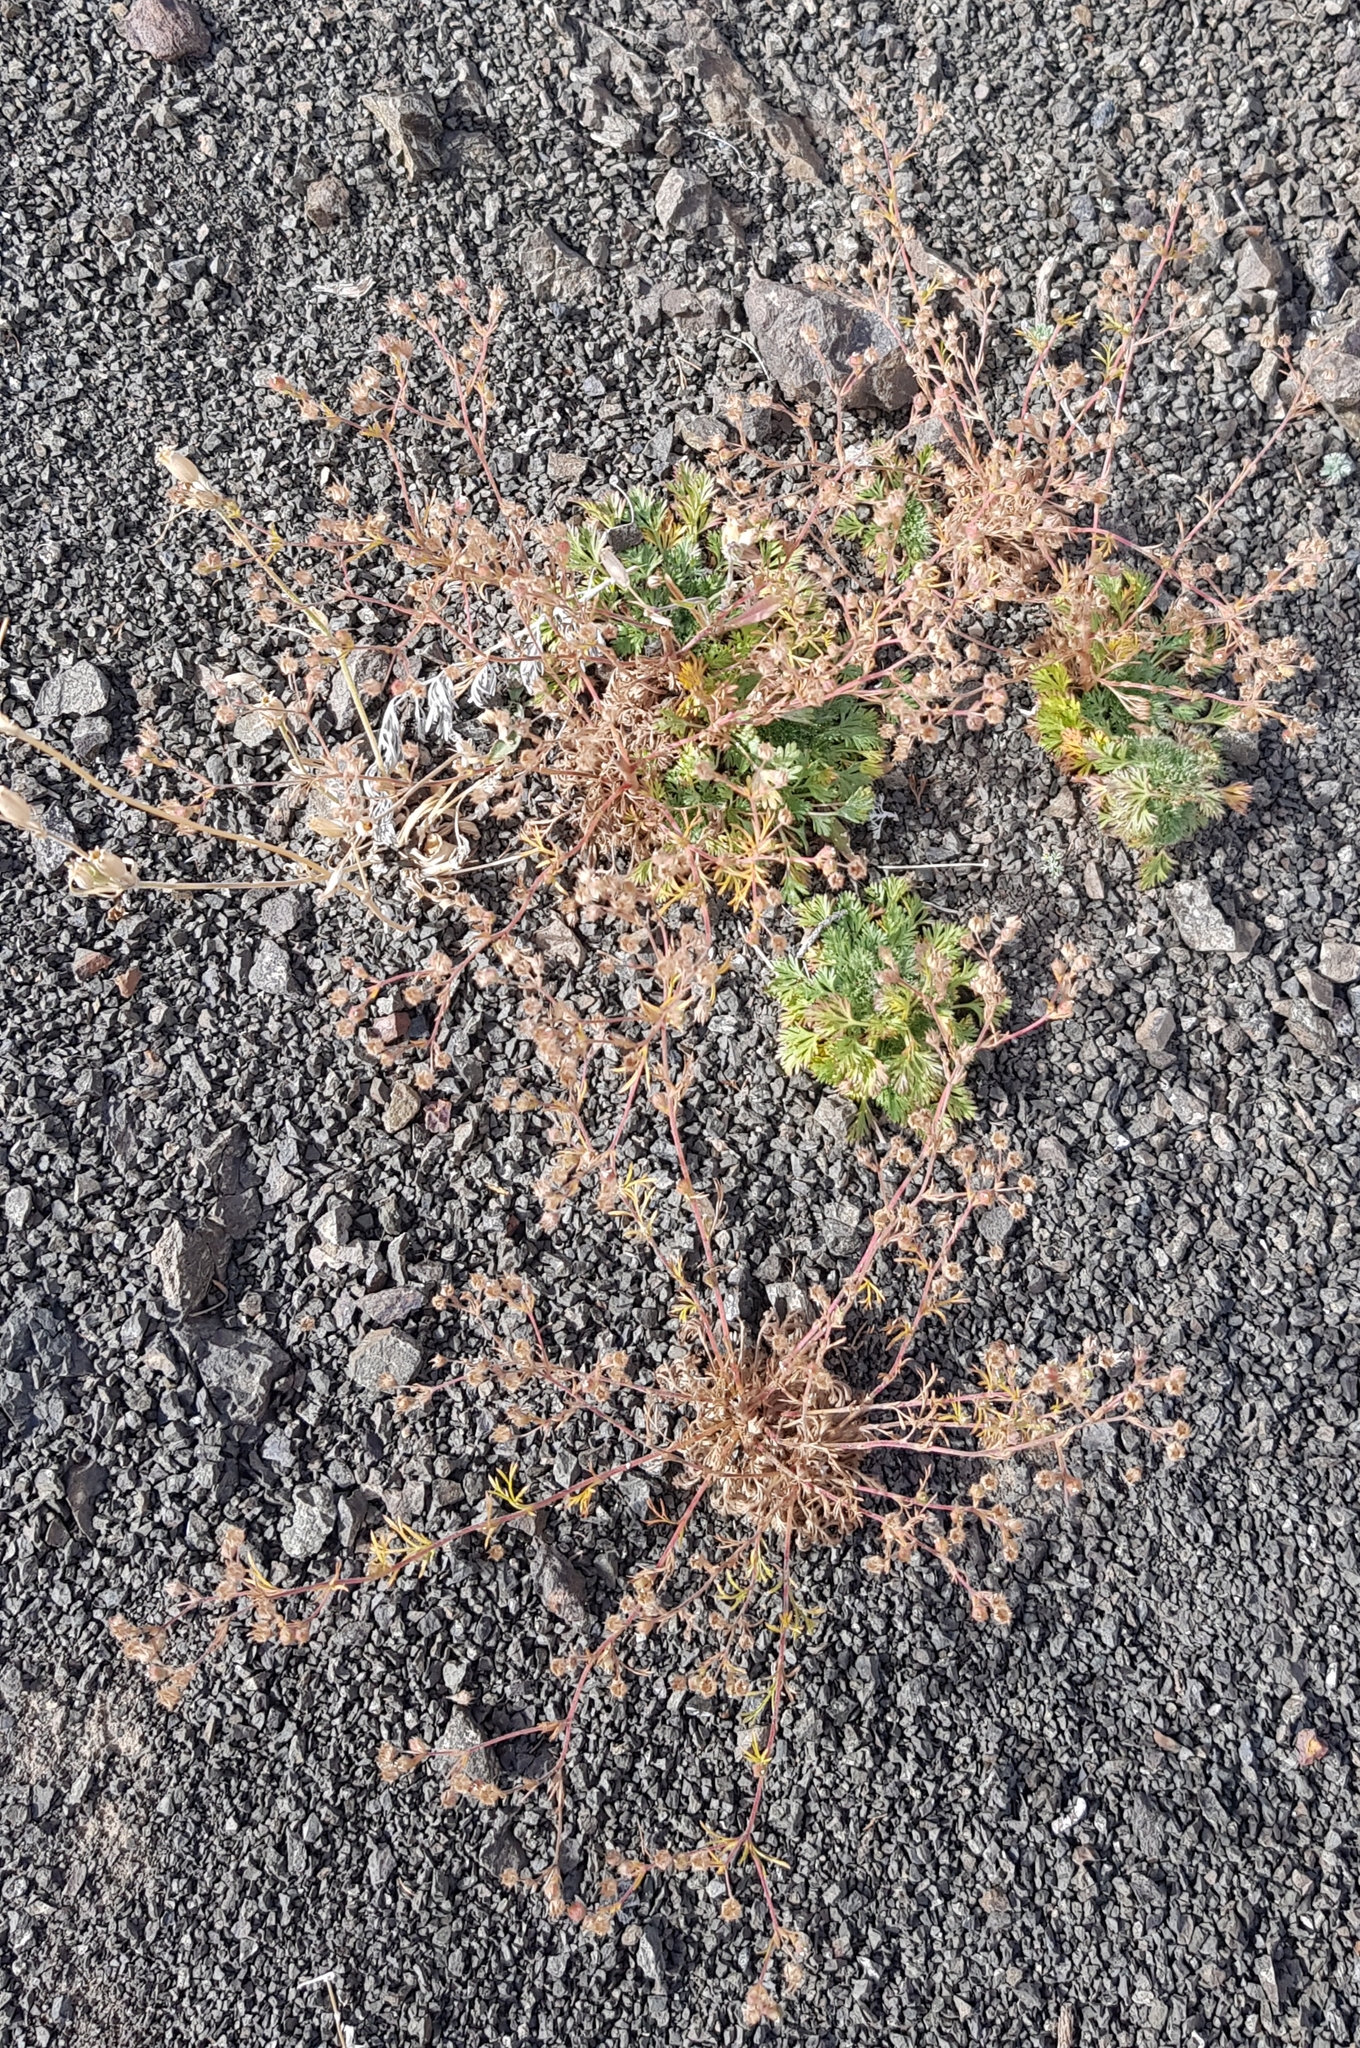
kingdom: Plantae
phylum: Tracheophyta
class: Magnoliopsida
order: Rosales
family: Rosaceae
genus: Chamaerhodos
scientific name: Chamaerhodos erecta
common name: American chamaerhodos
